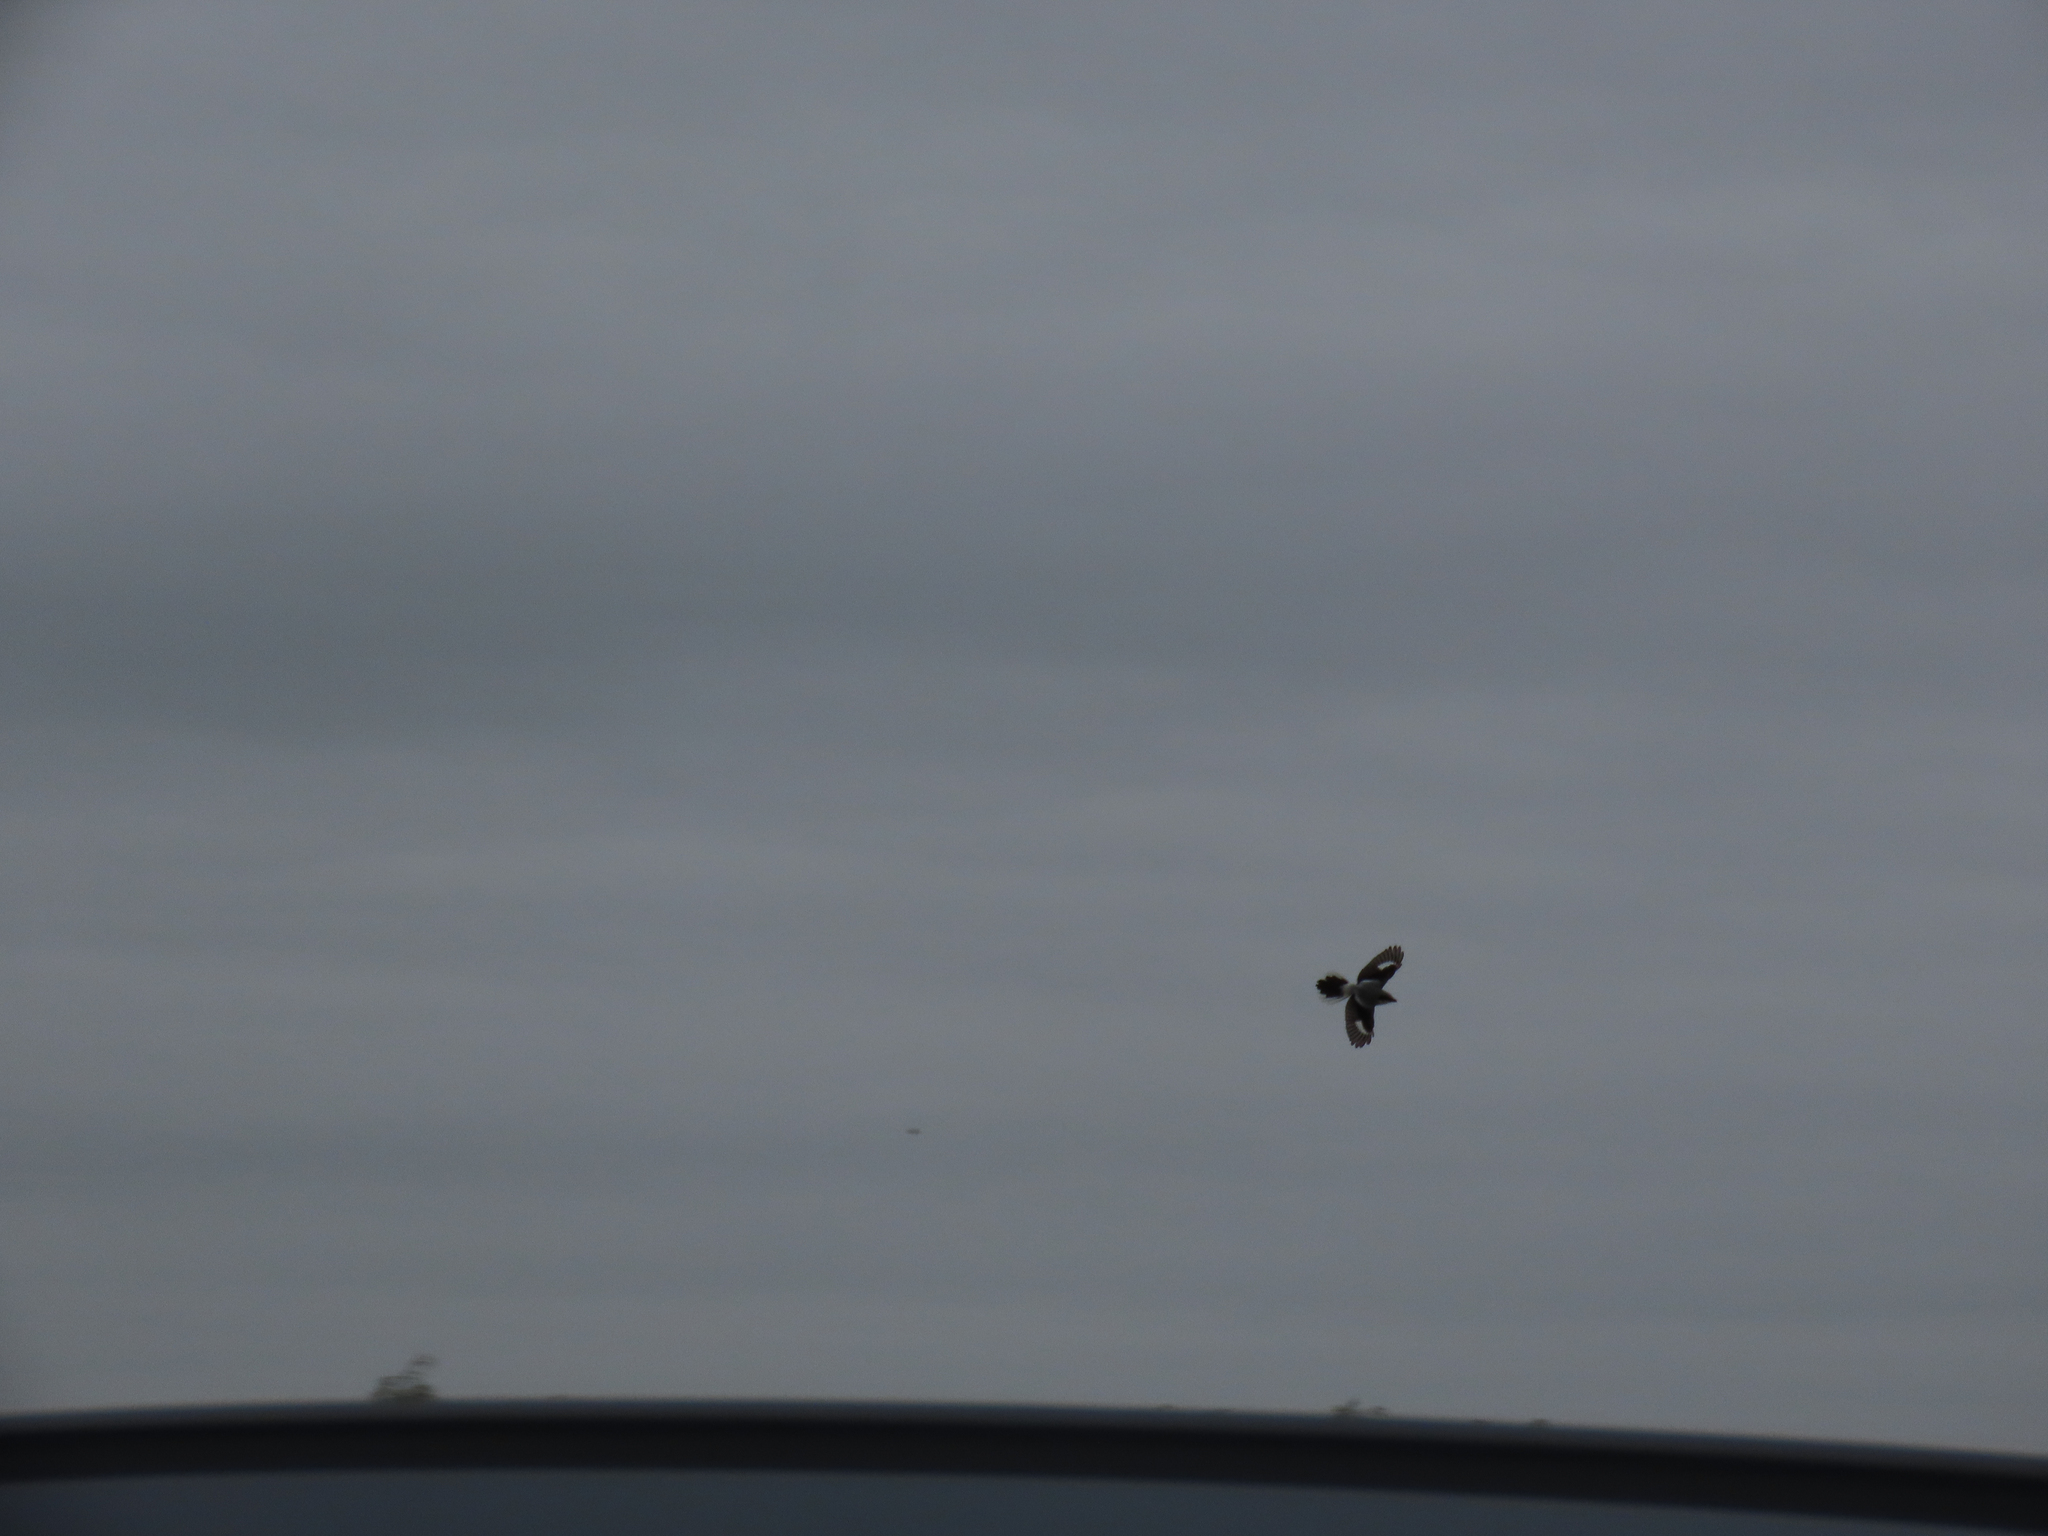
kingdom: Animalia
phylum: Chordata
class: Aves
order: Passeriformes
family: Laniidae
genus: Lanius
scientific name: Lanius ludovicianus
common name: Loggerhead shrike
